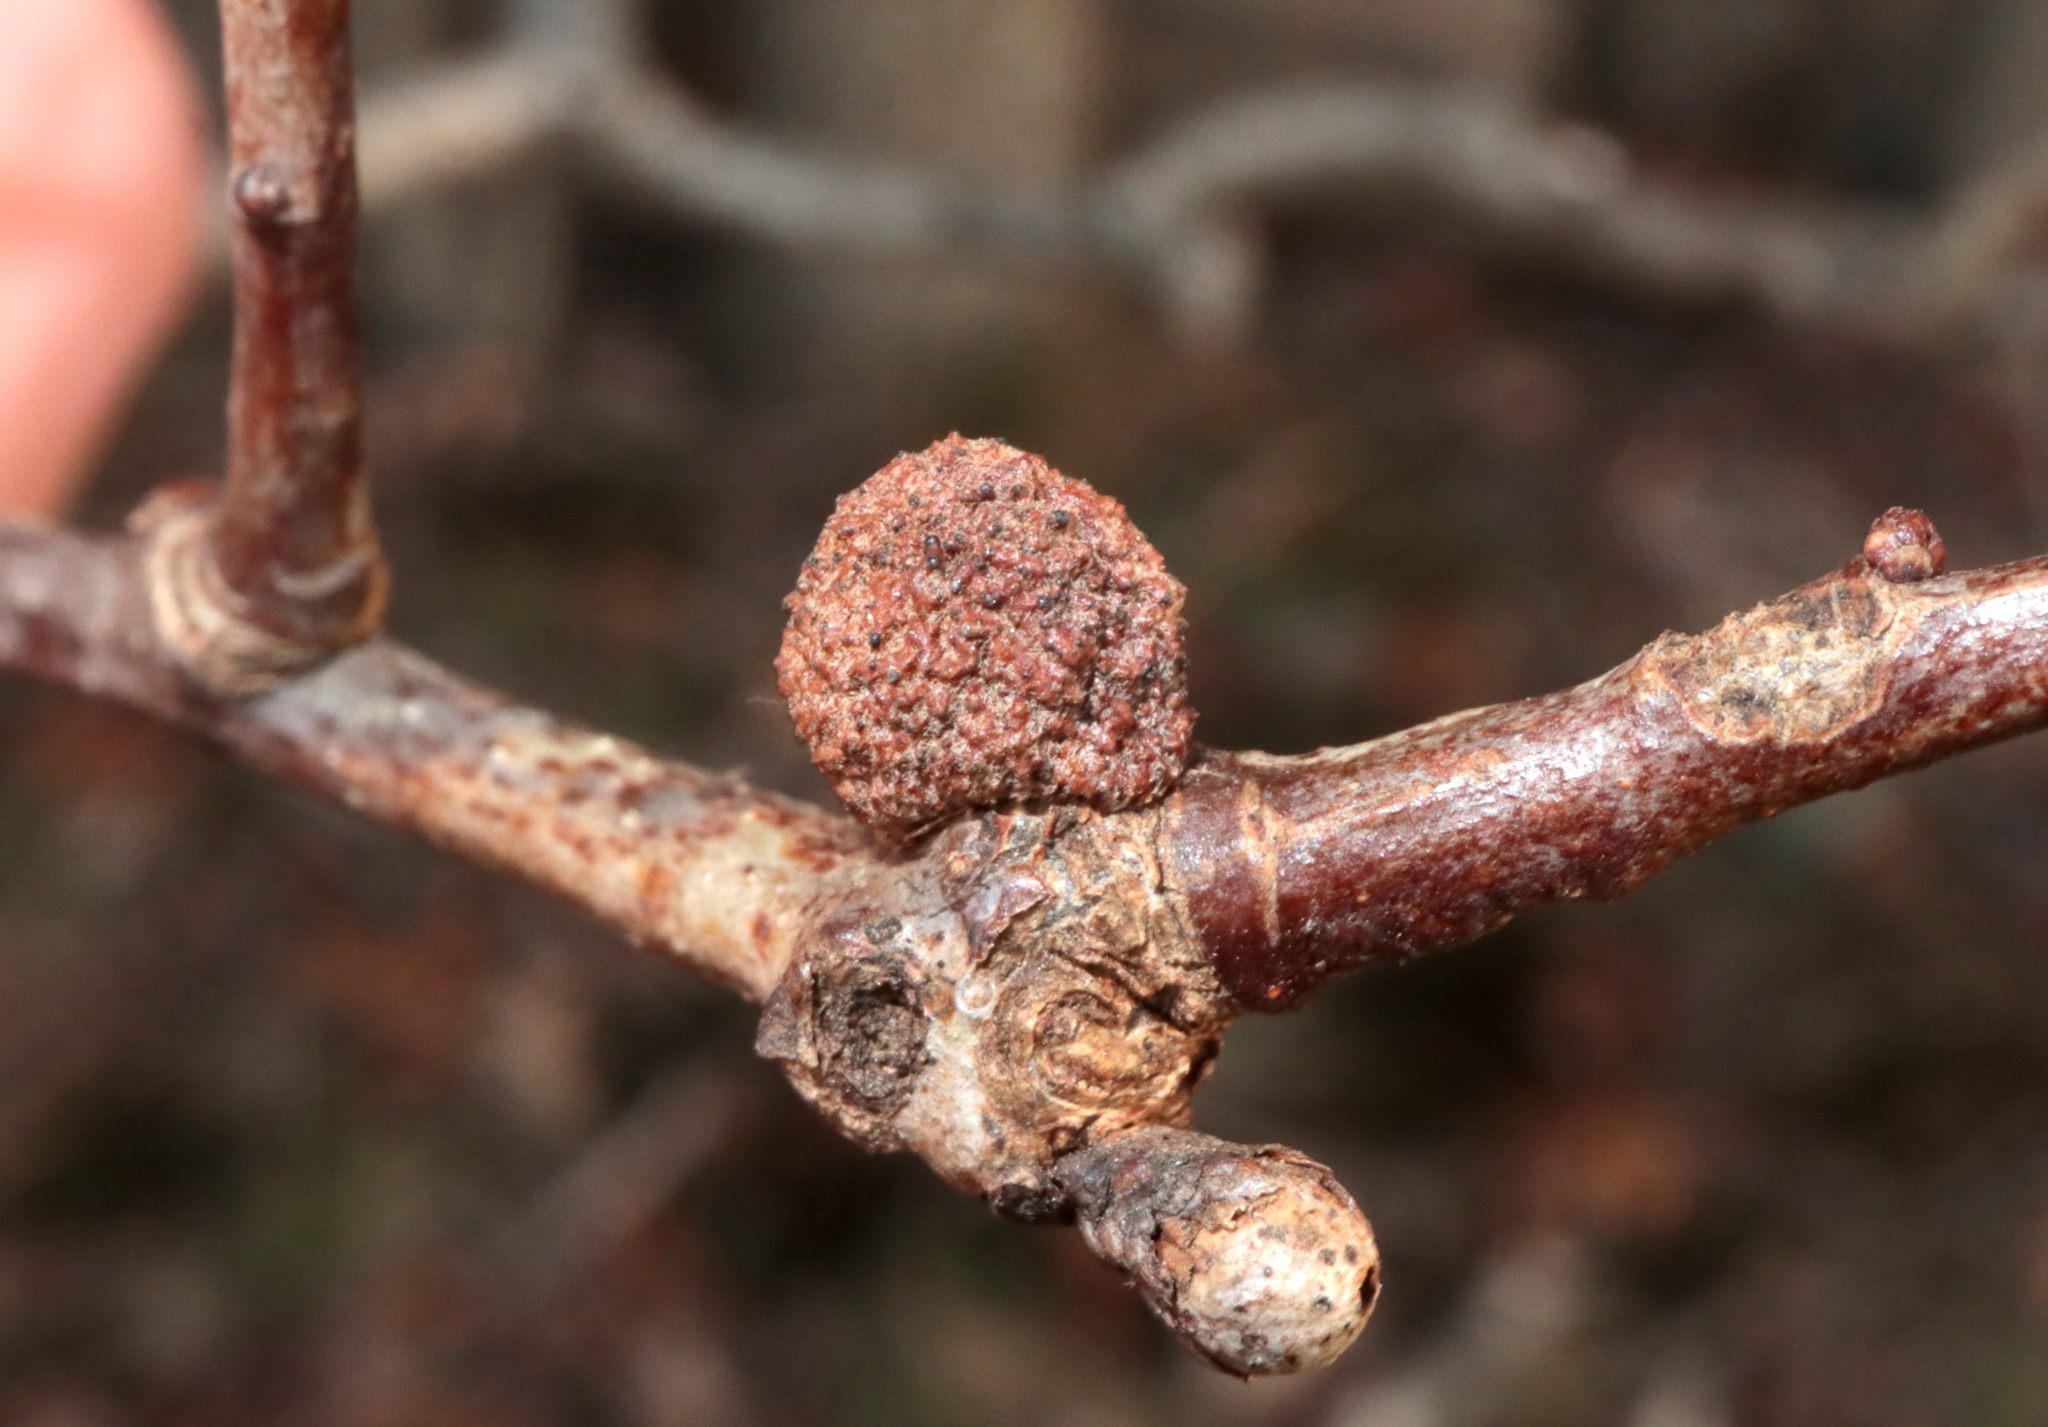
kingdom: Animalia
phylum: Arthropoda
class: Insecta
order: Hymenoptera
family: Cynipidae
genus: Disholcaspis
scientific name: Disholcaspis quercusglobulus
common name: Round bullet gall wasp
